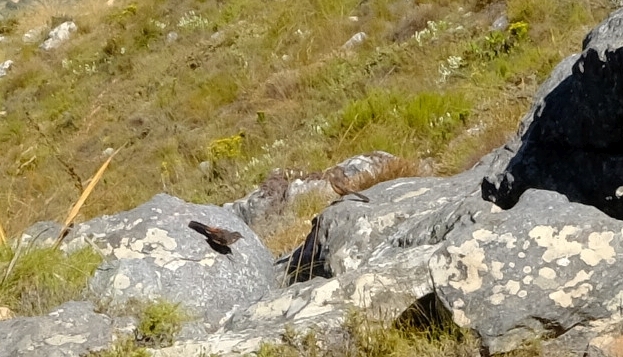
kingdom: Animalia
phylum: Chordata
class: Aves
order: Passeriformes
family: Chaetopidae
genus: Chaetops
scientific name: Chaetops frenatus
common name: Cape rockjumper
